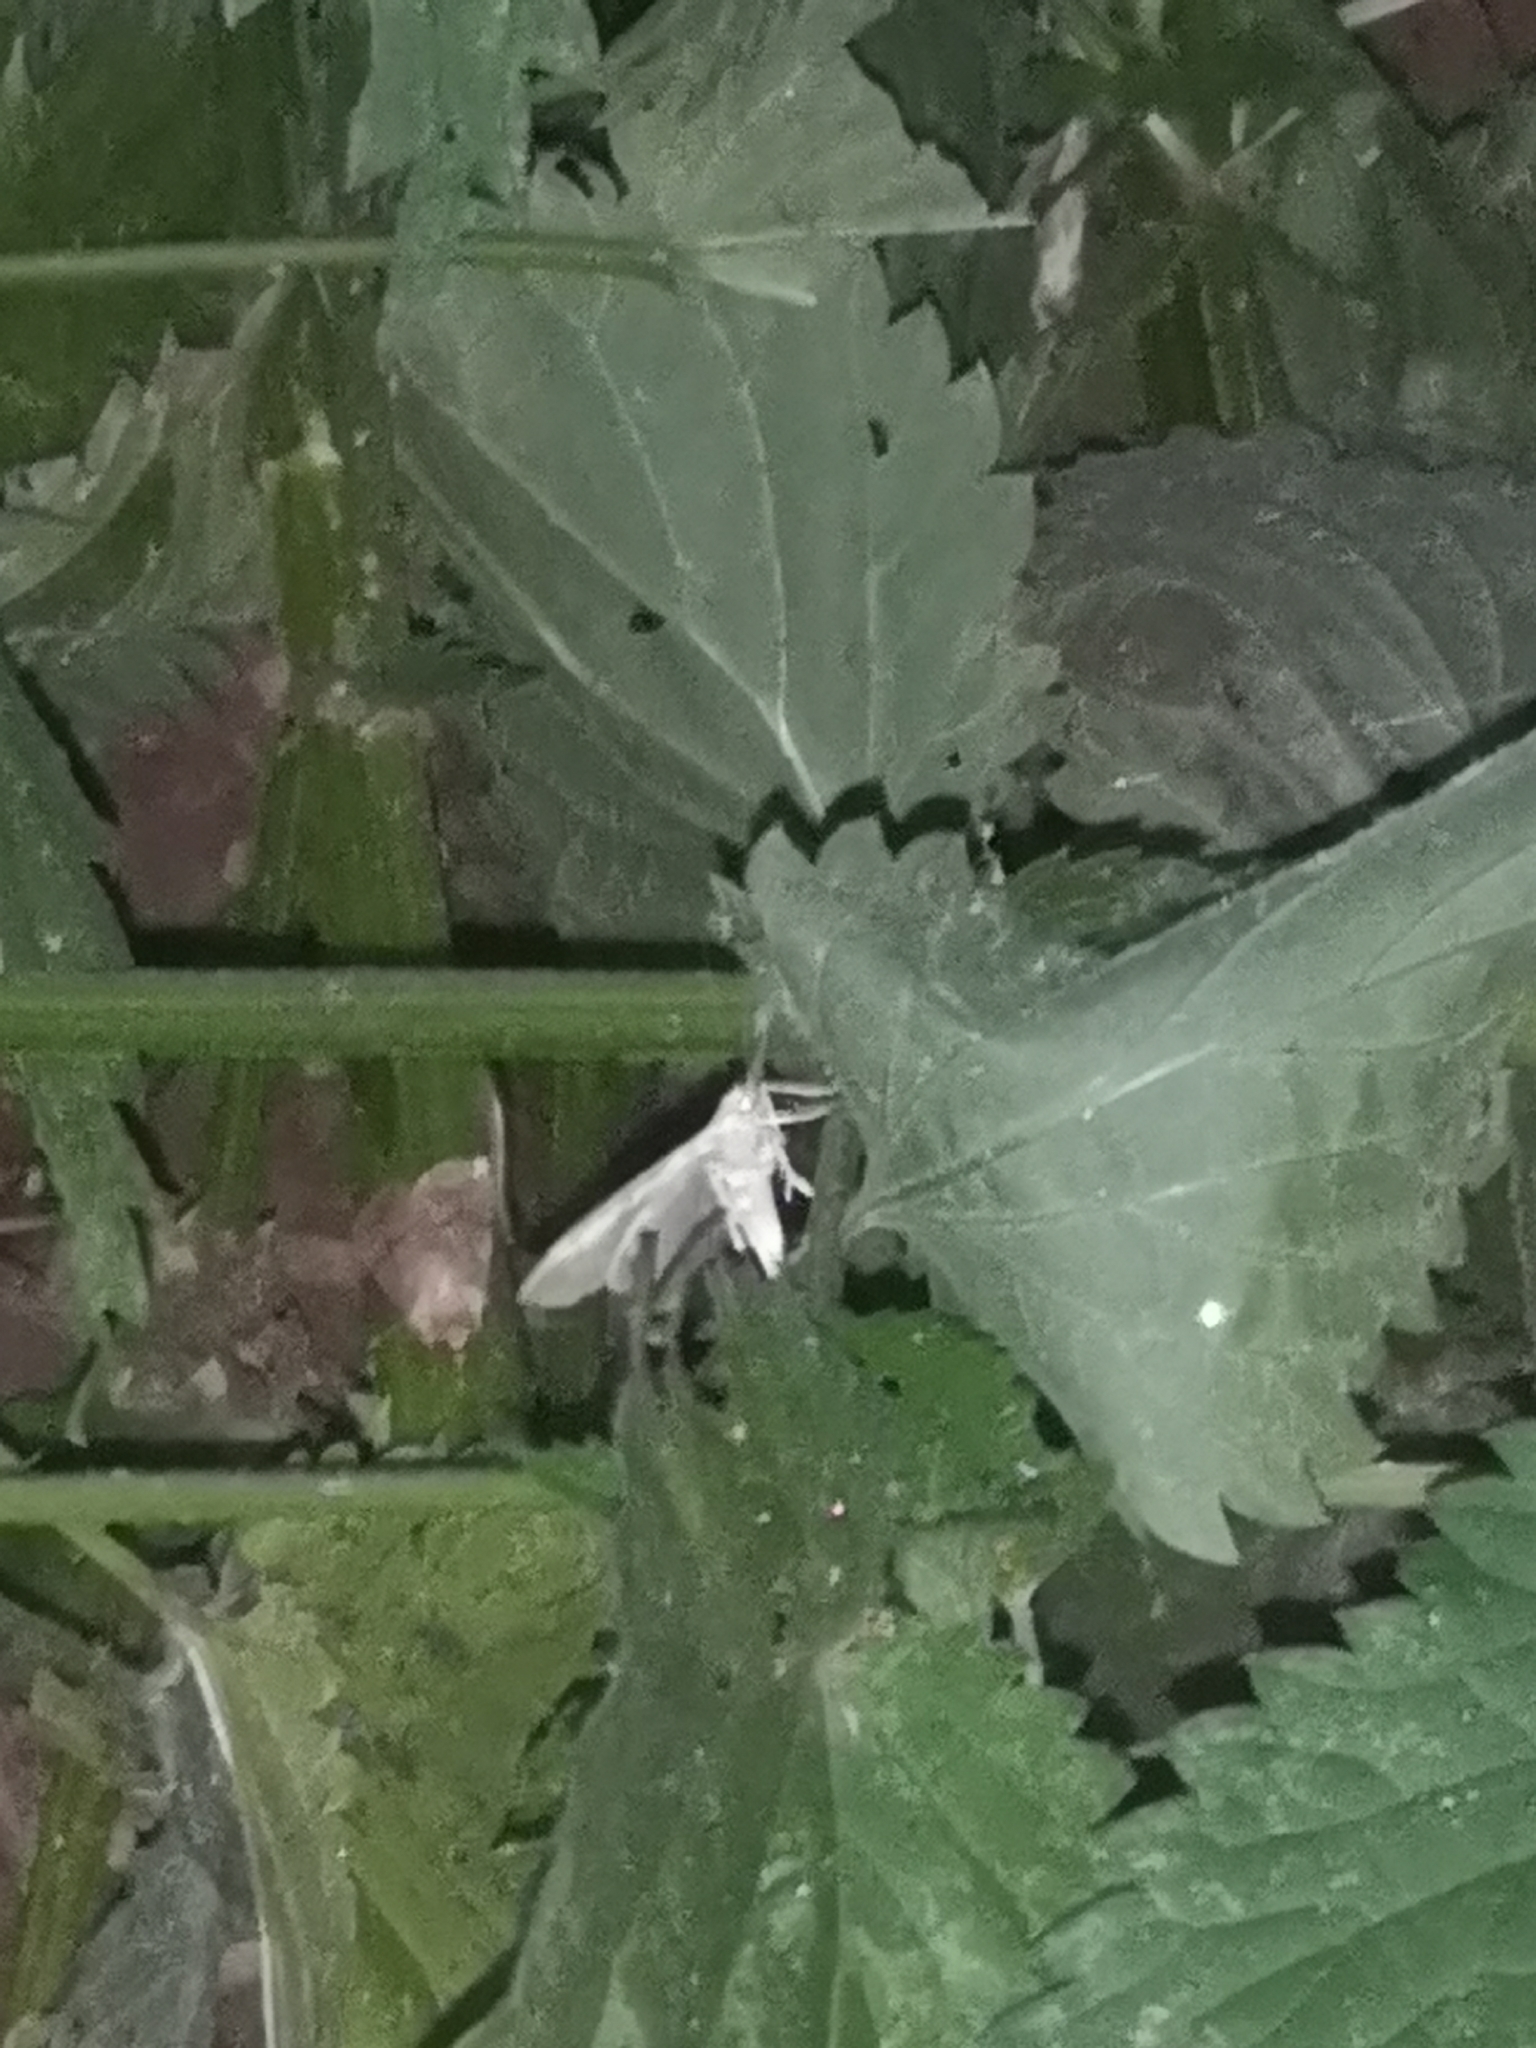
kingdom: Animalia
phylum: Arthropoda
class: Insecta
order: Lepidoptera
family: Crambidae
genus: Patania
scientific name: Patania ruralis
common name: Mother of pearl
